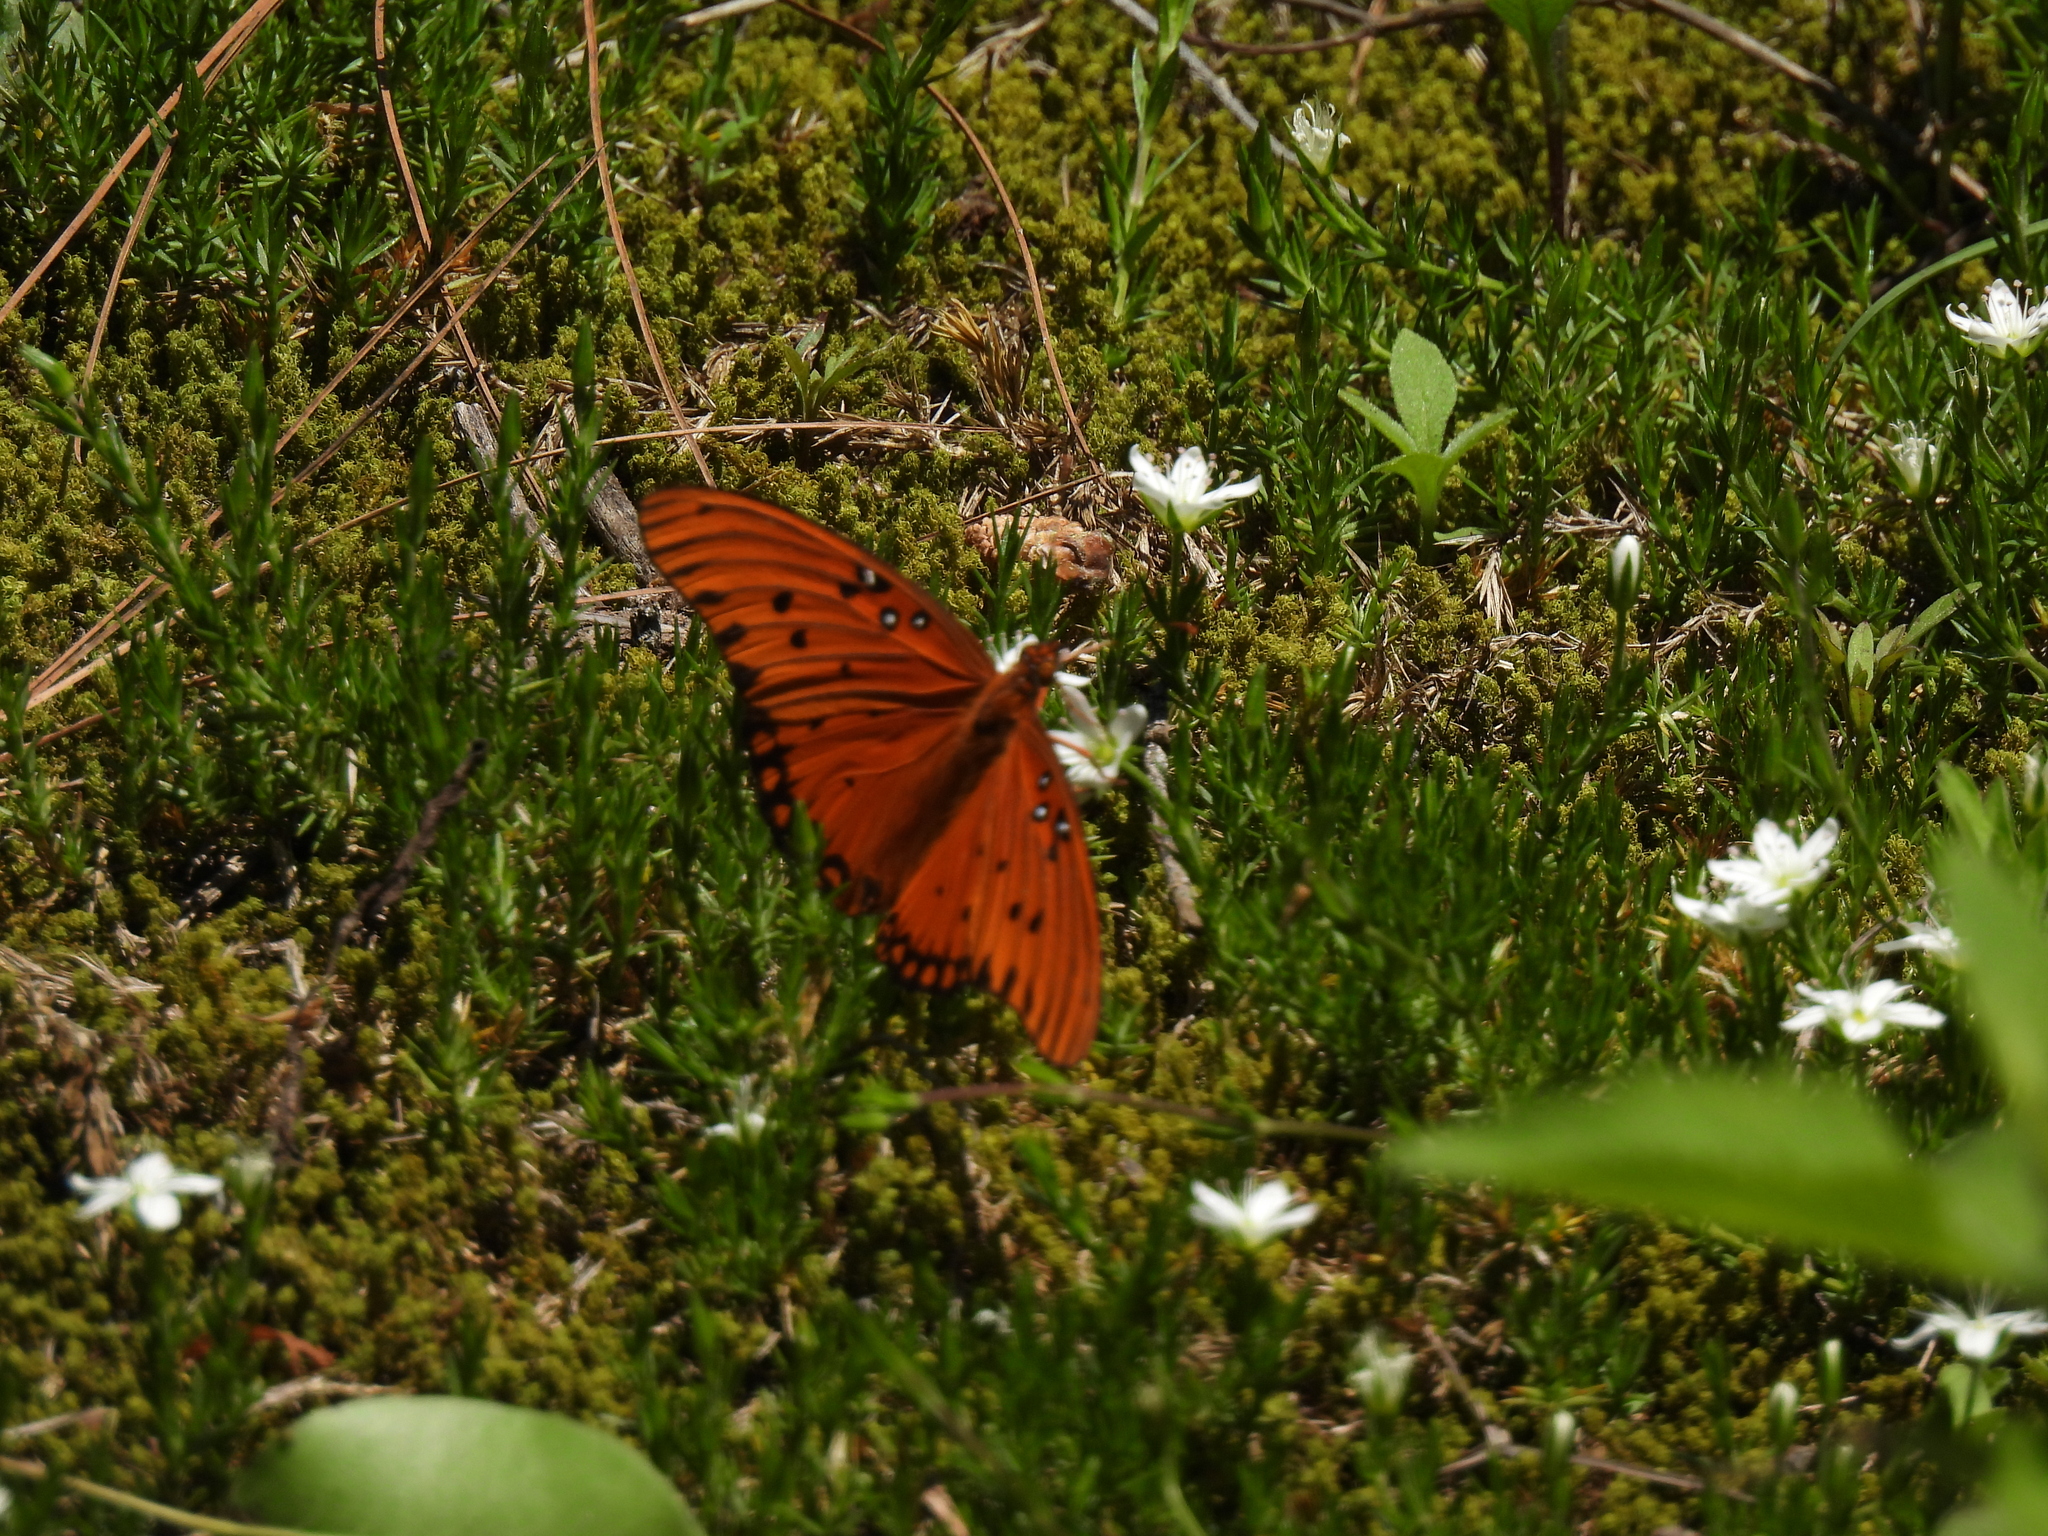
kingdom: Animalia
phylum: Arthropoda
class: Insecta
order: Lepidoptera
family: Nymphalidae
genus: Dione
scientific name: Dione vanillae
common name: Gulf fritillary
